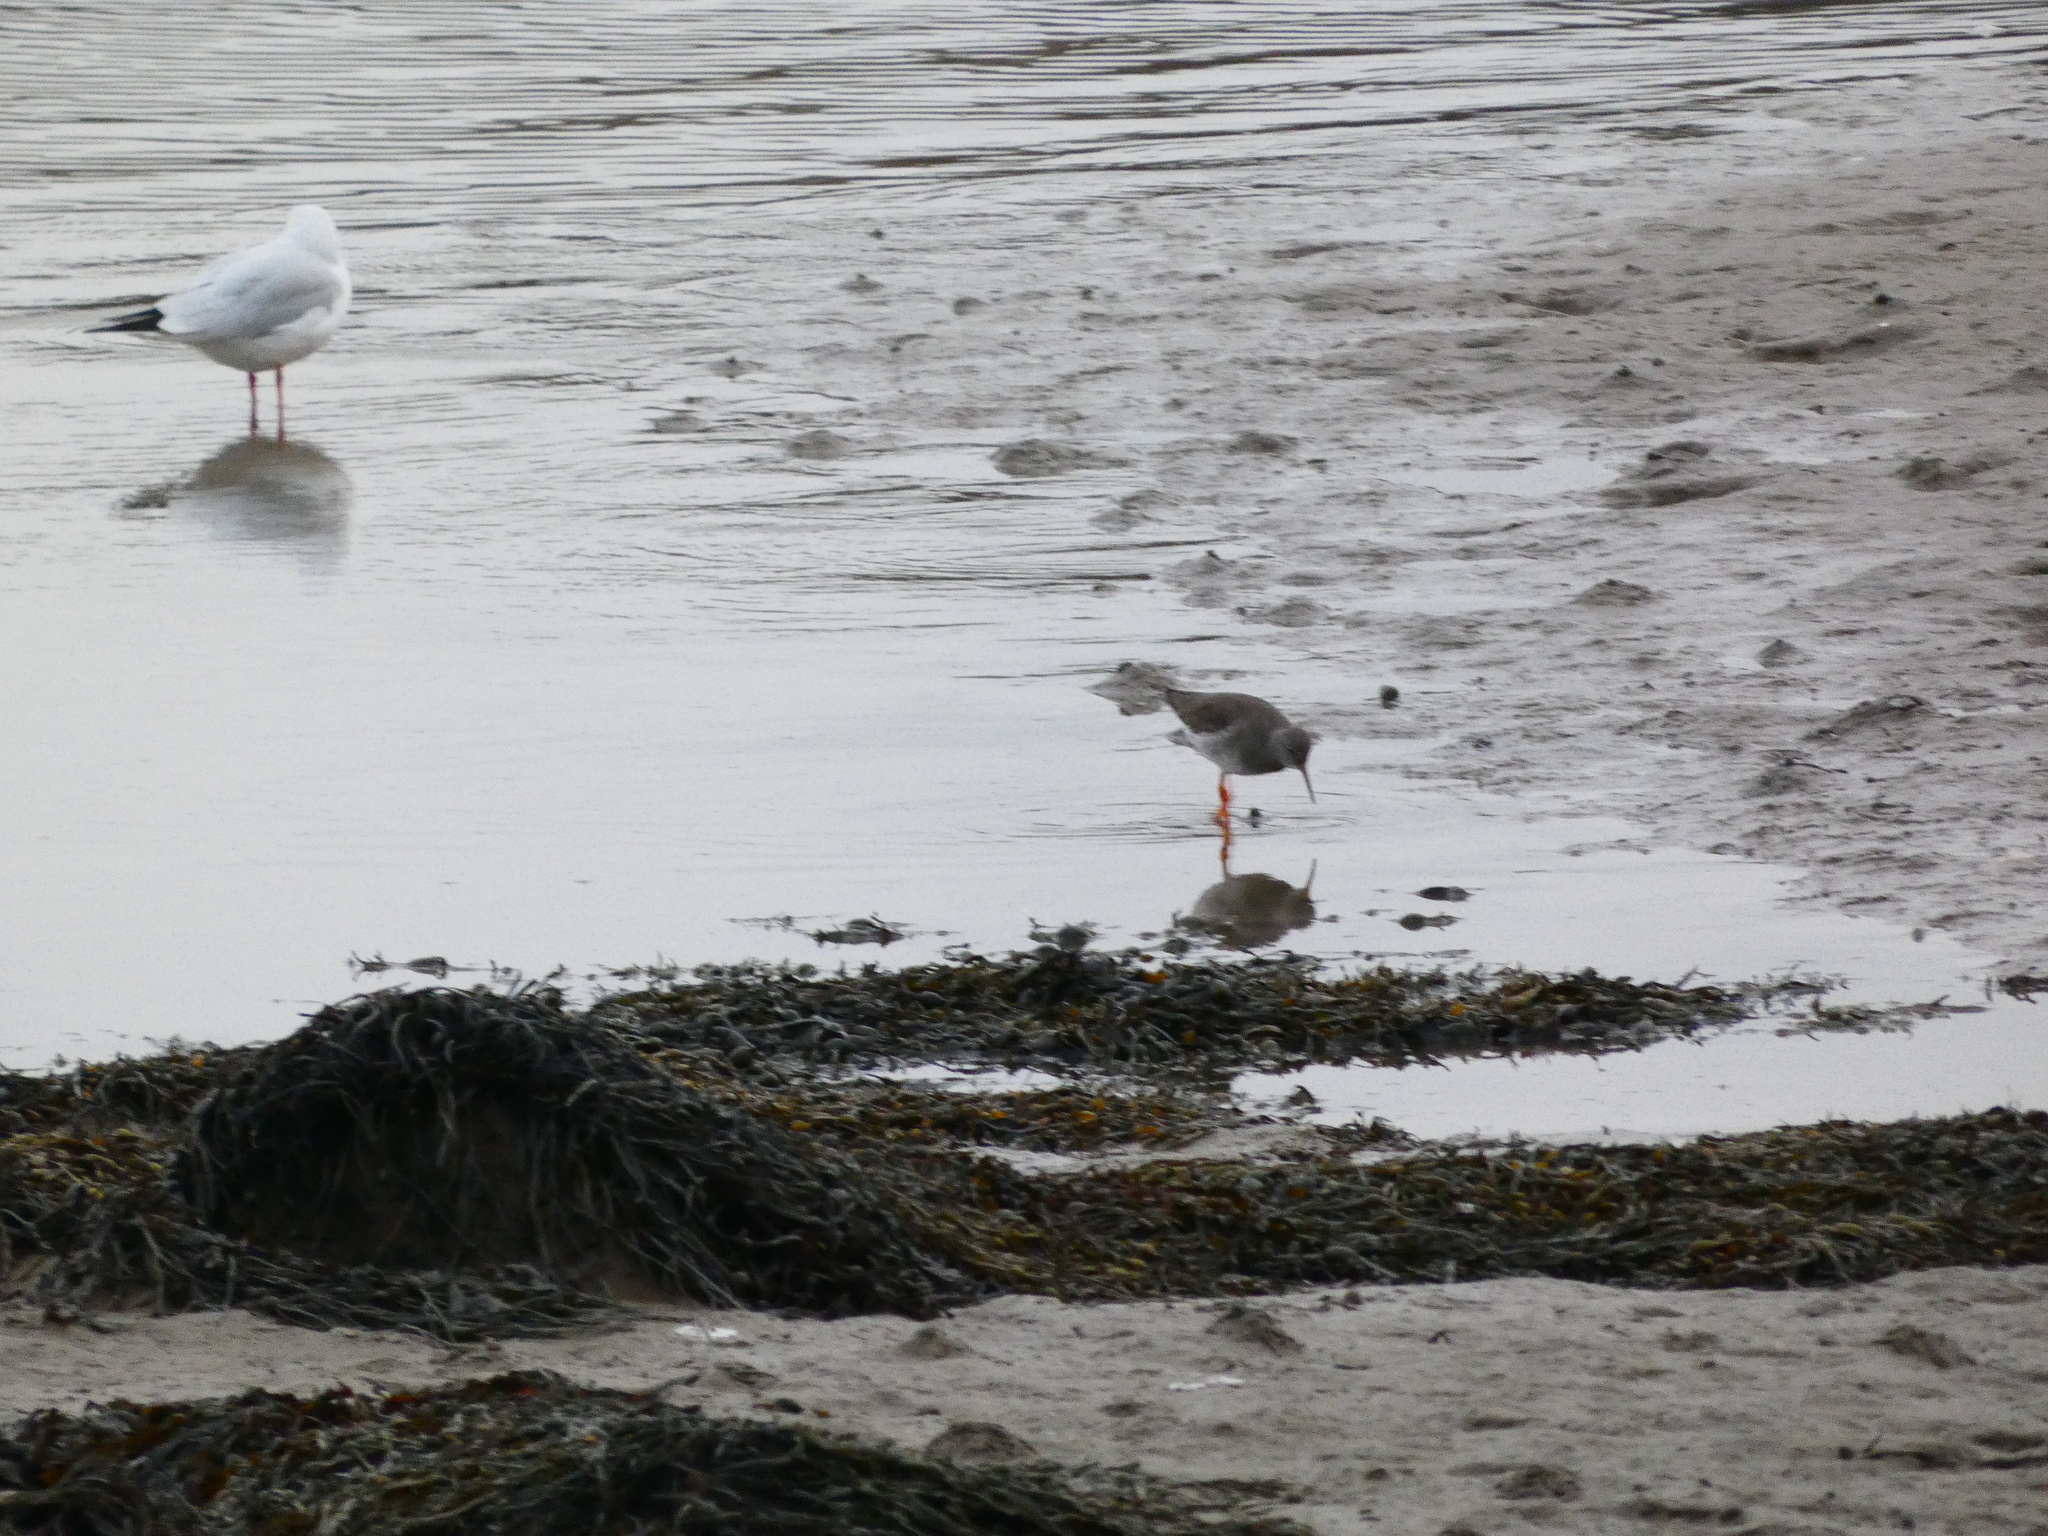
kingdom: Animalia
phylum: Chordata
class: Aves
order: Charadriiformes
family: Scolopacidae
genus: Tringa
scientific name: Tringa totanus
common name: Common redshank
